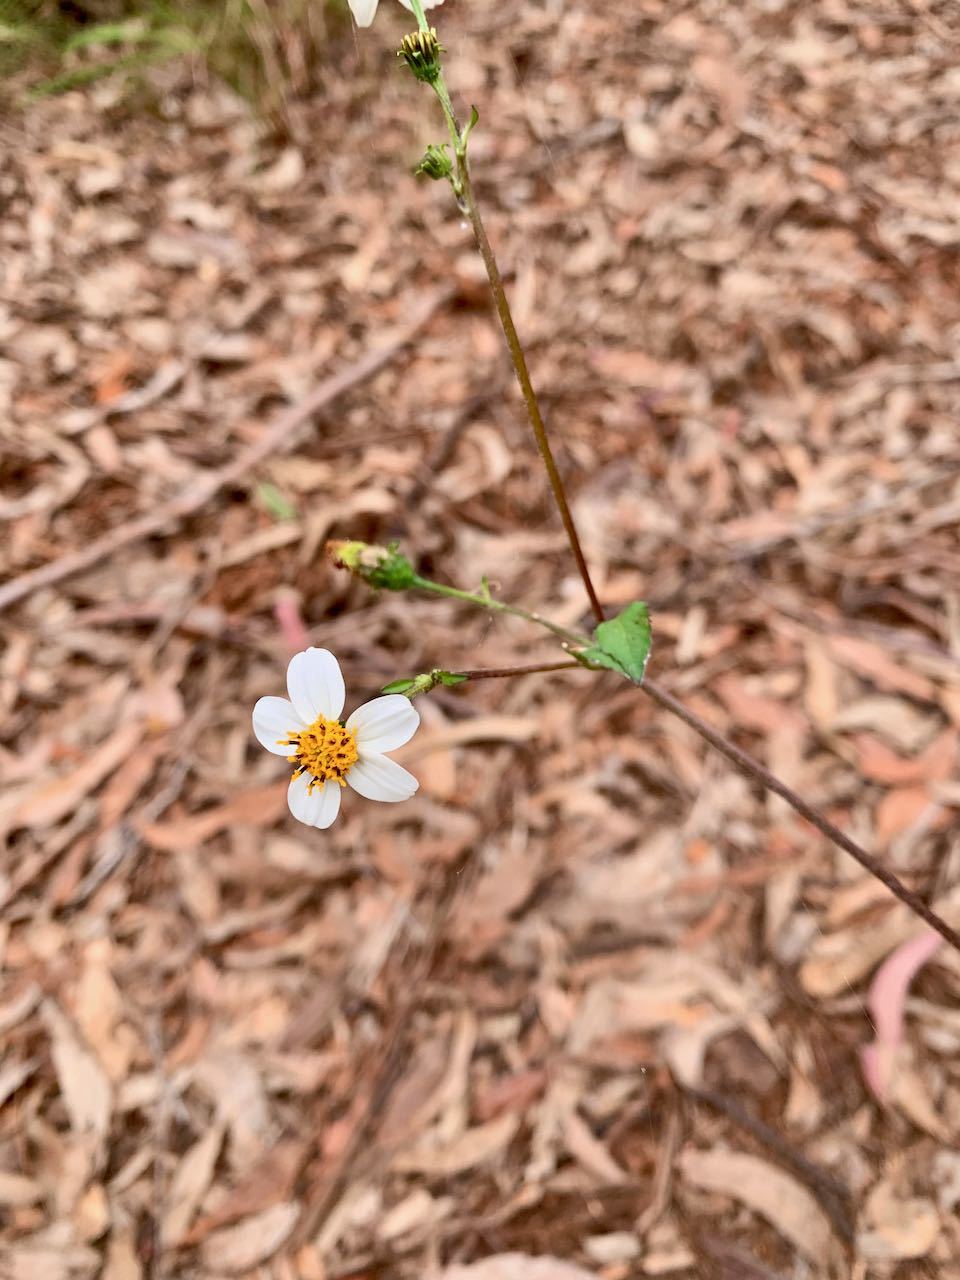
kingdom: Plantae
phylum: Tracheophyta
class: Magnoliopsida
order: Asterales
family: Asteraceae
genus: Bidens
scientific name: Bidens alba
